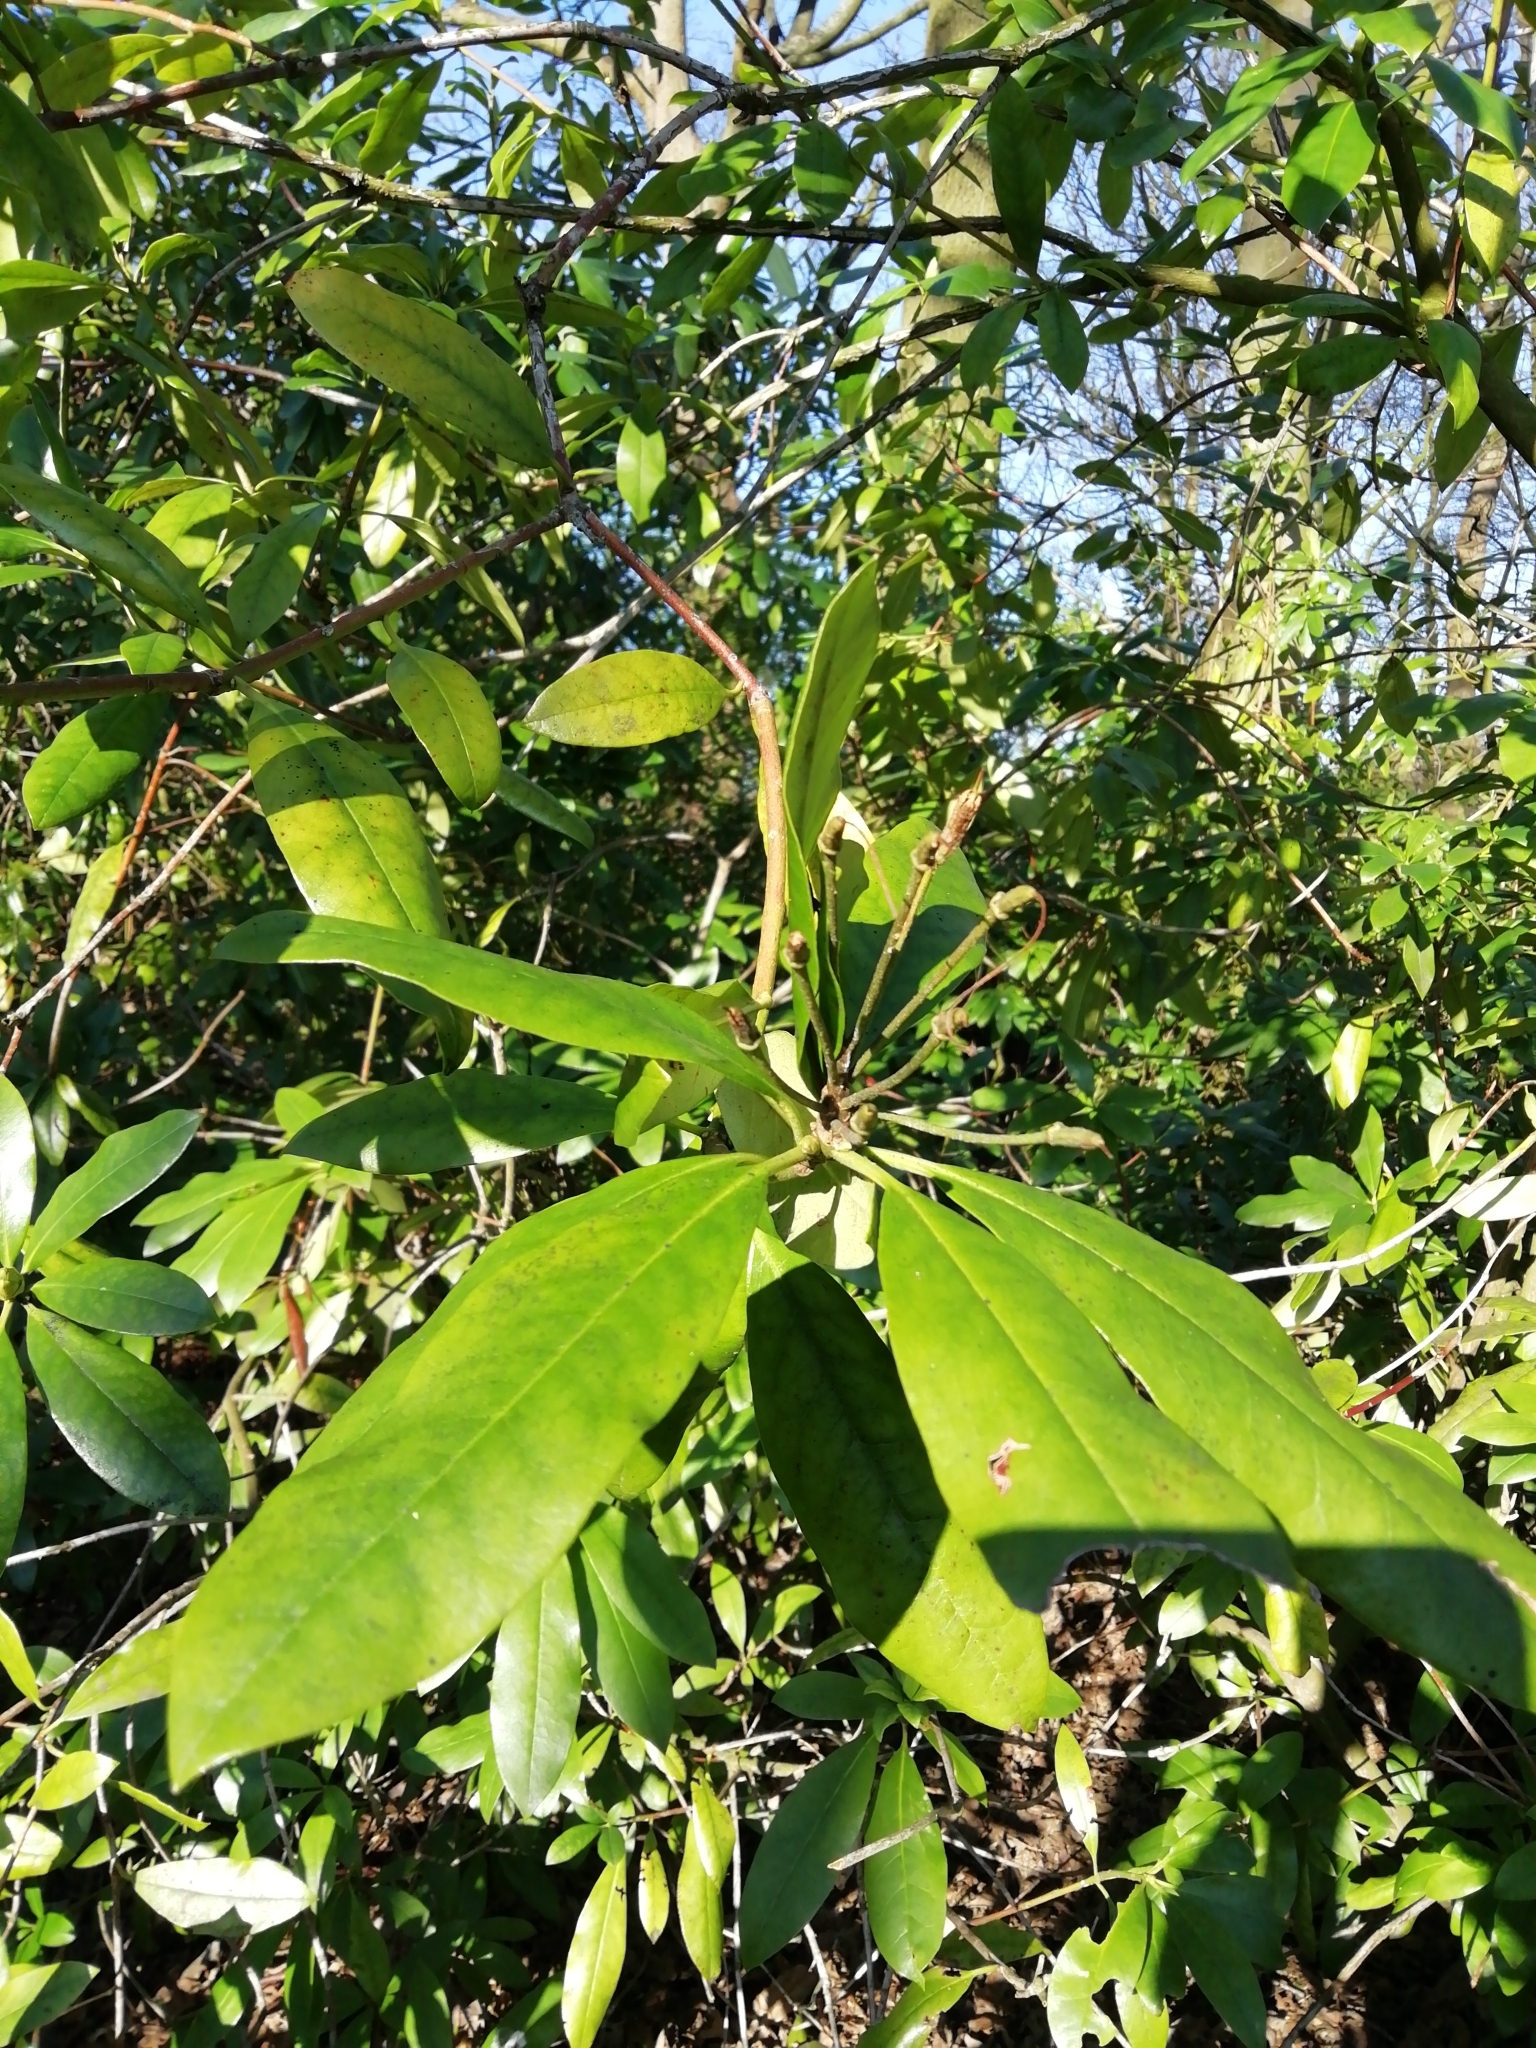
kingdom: Plantae
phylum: Tracheophyta
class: Magnoliopsida
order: Ericales
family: Ericaceae
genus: Rhododendron
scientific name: Rhododendron ponticum
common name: Rhododendron
